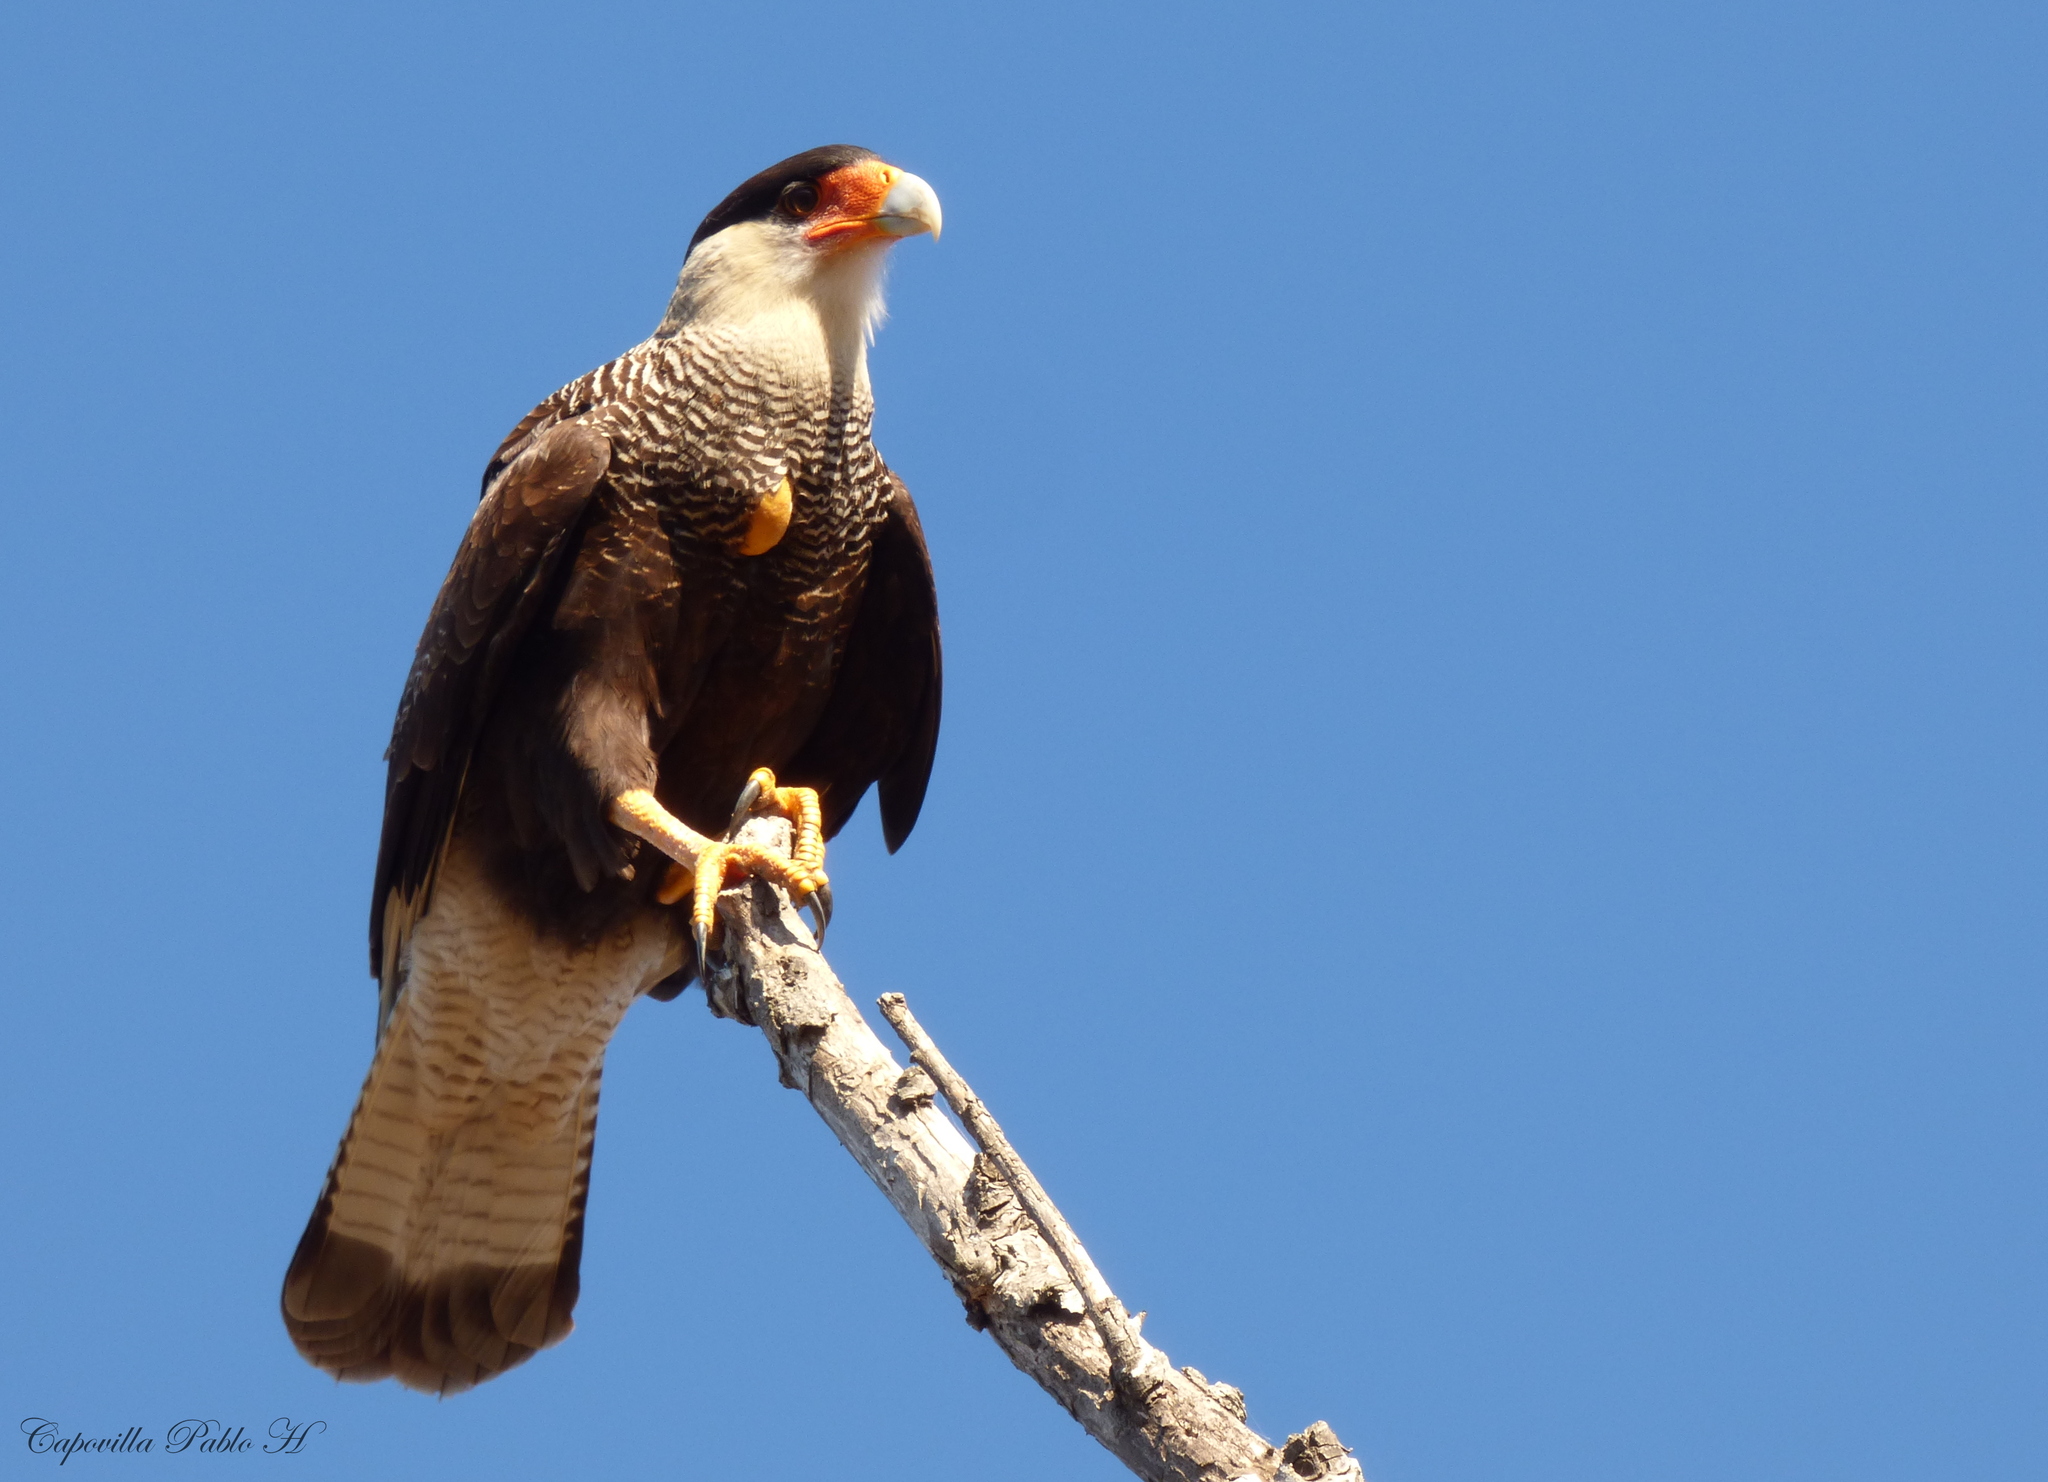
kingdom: Animalia
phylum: Chordata
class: Aves
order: Falconiformes
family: Falconidae
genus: Caracara
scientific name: Caracara plancus
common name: Southern caracara
